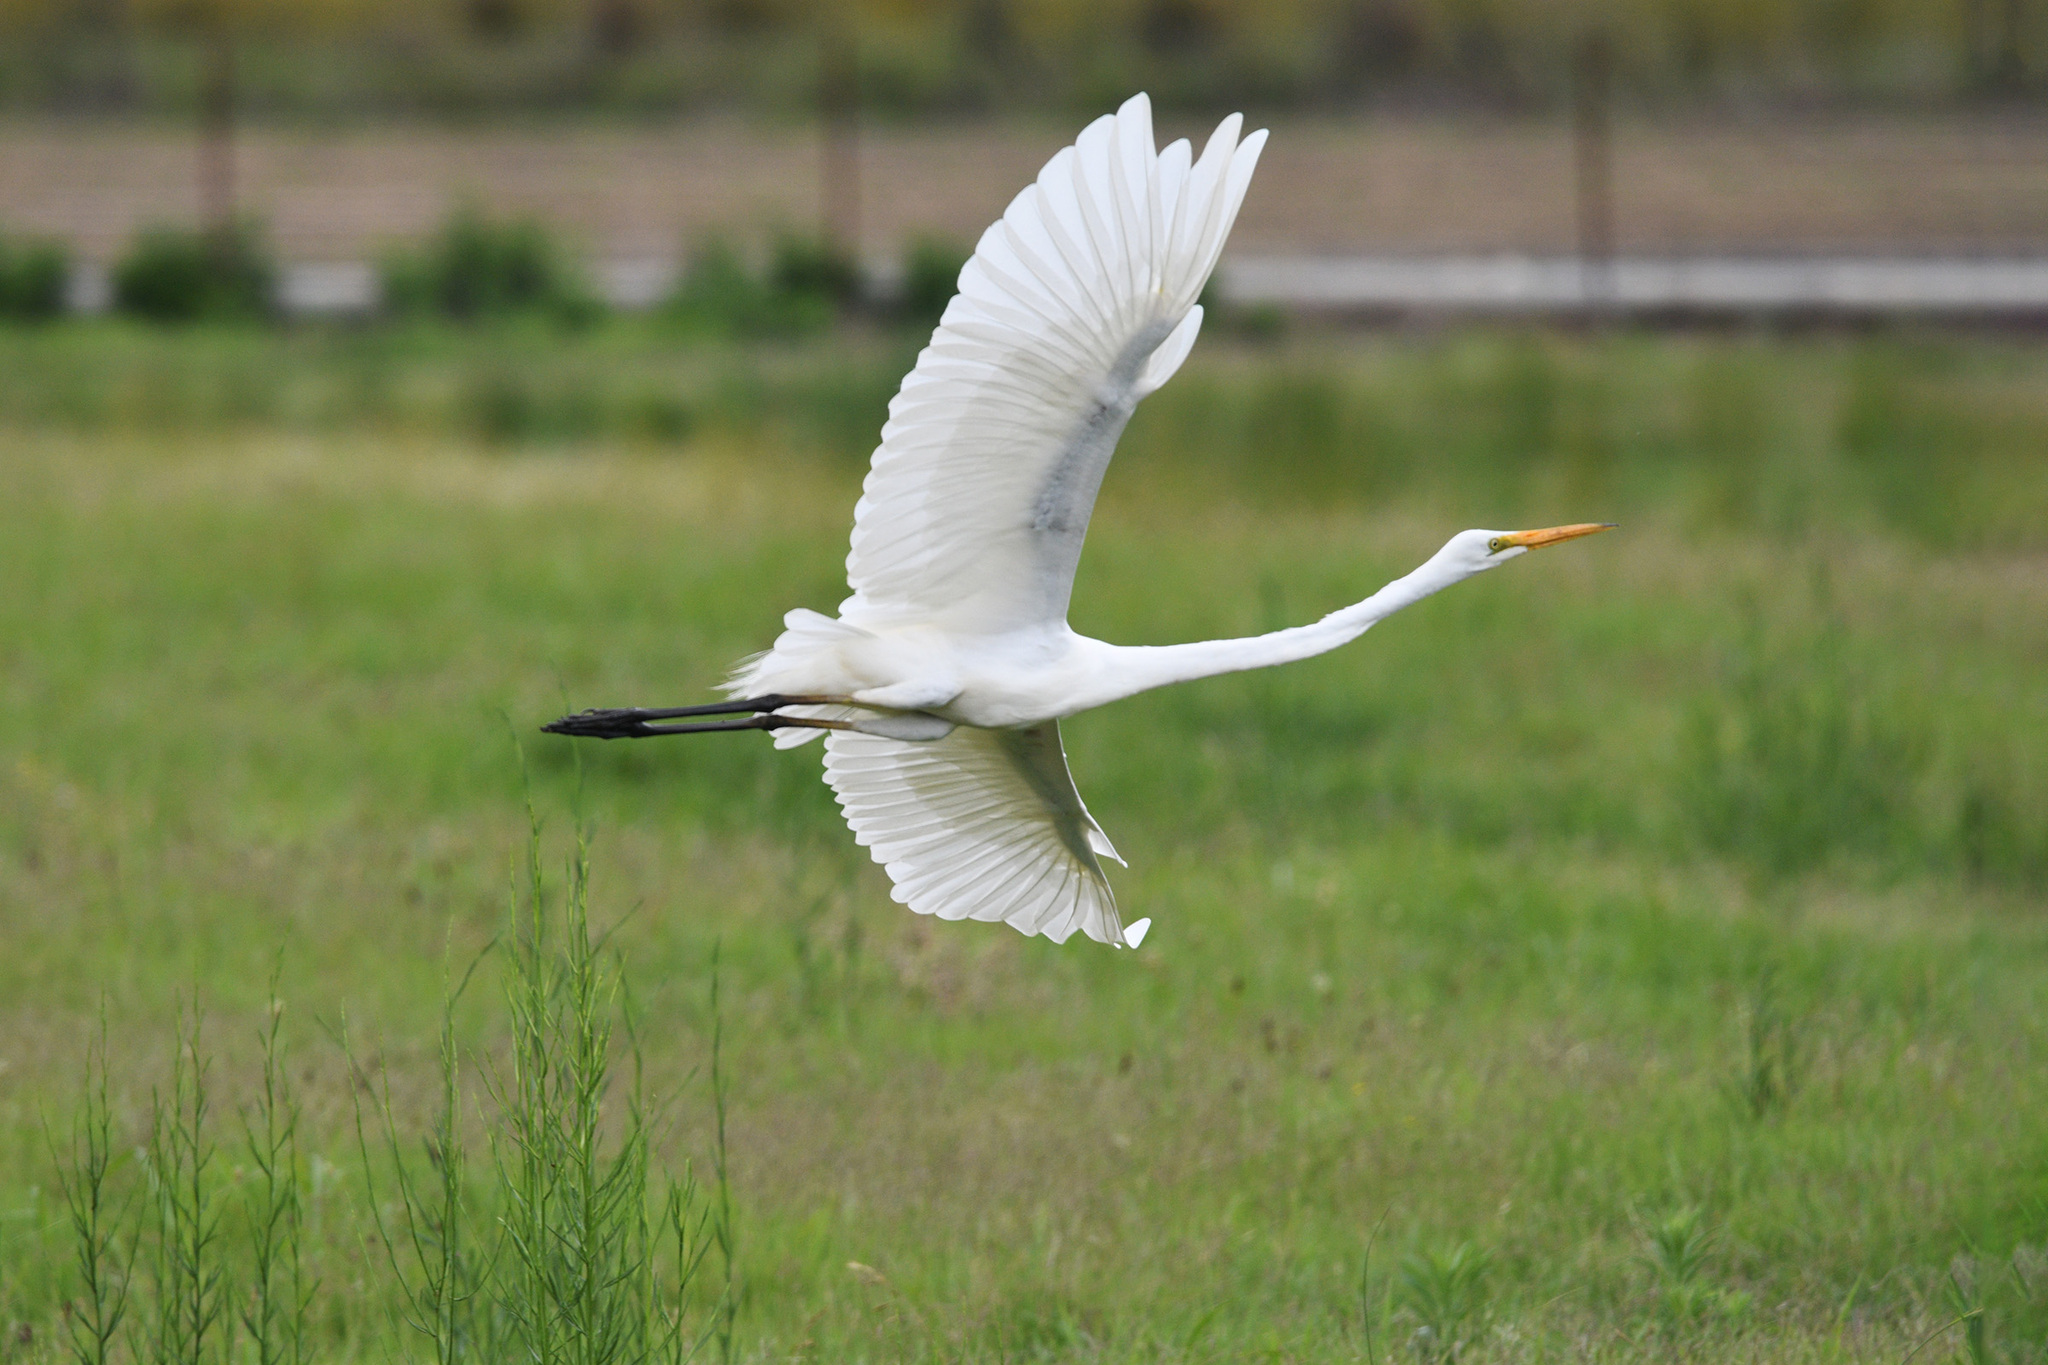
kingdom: Animalia
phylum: Chordata
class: Aves
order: Pelecaniformes
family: Ardeidae
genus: Ardea
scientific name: Ardea alba
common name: Great egret
